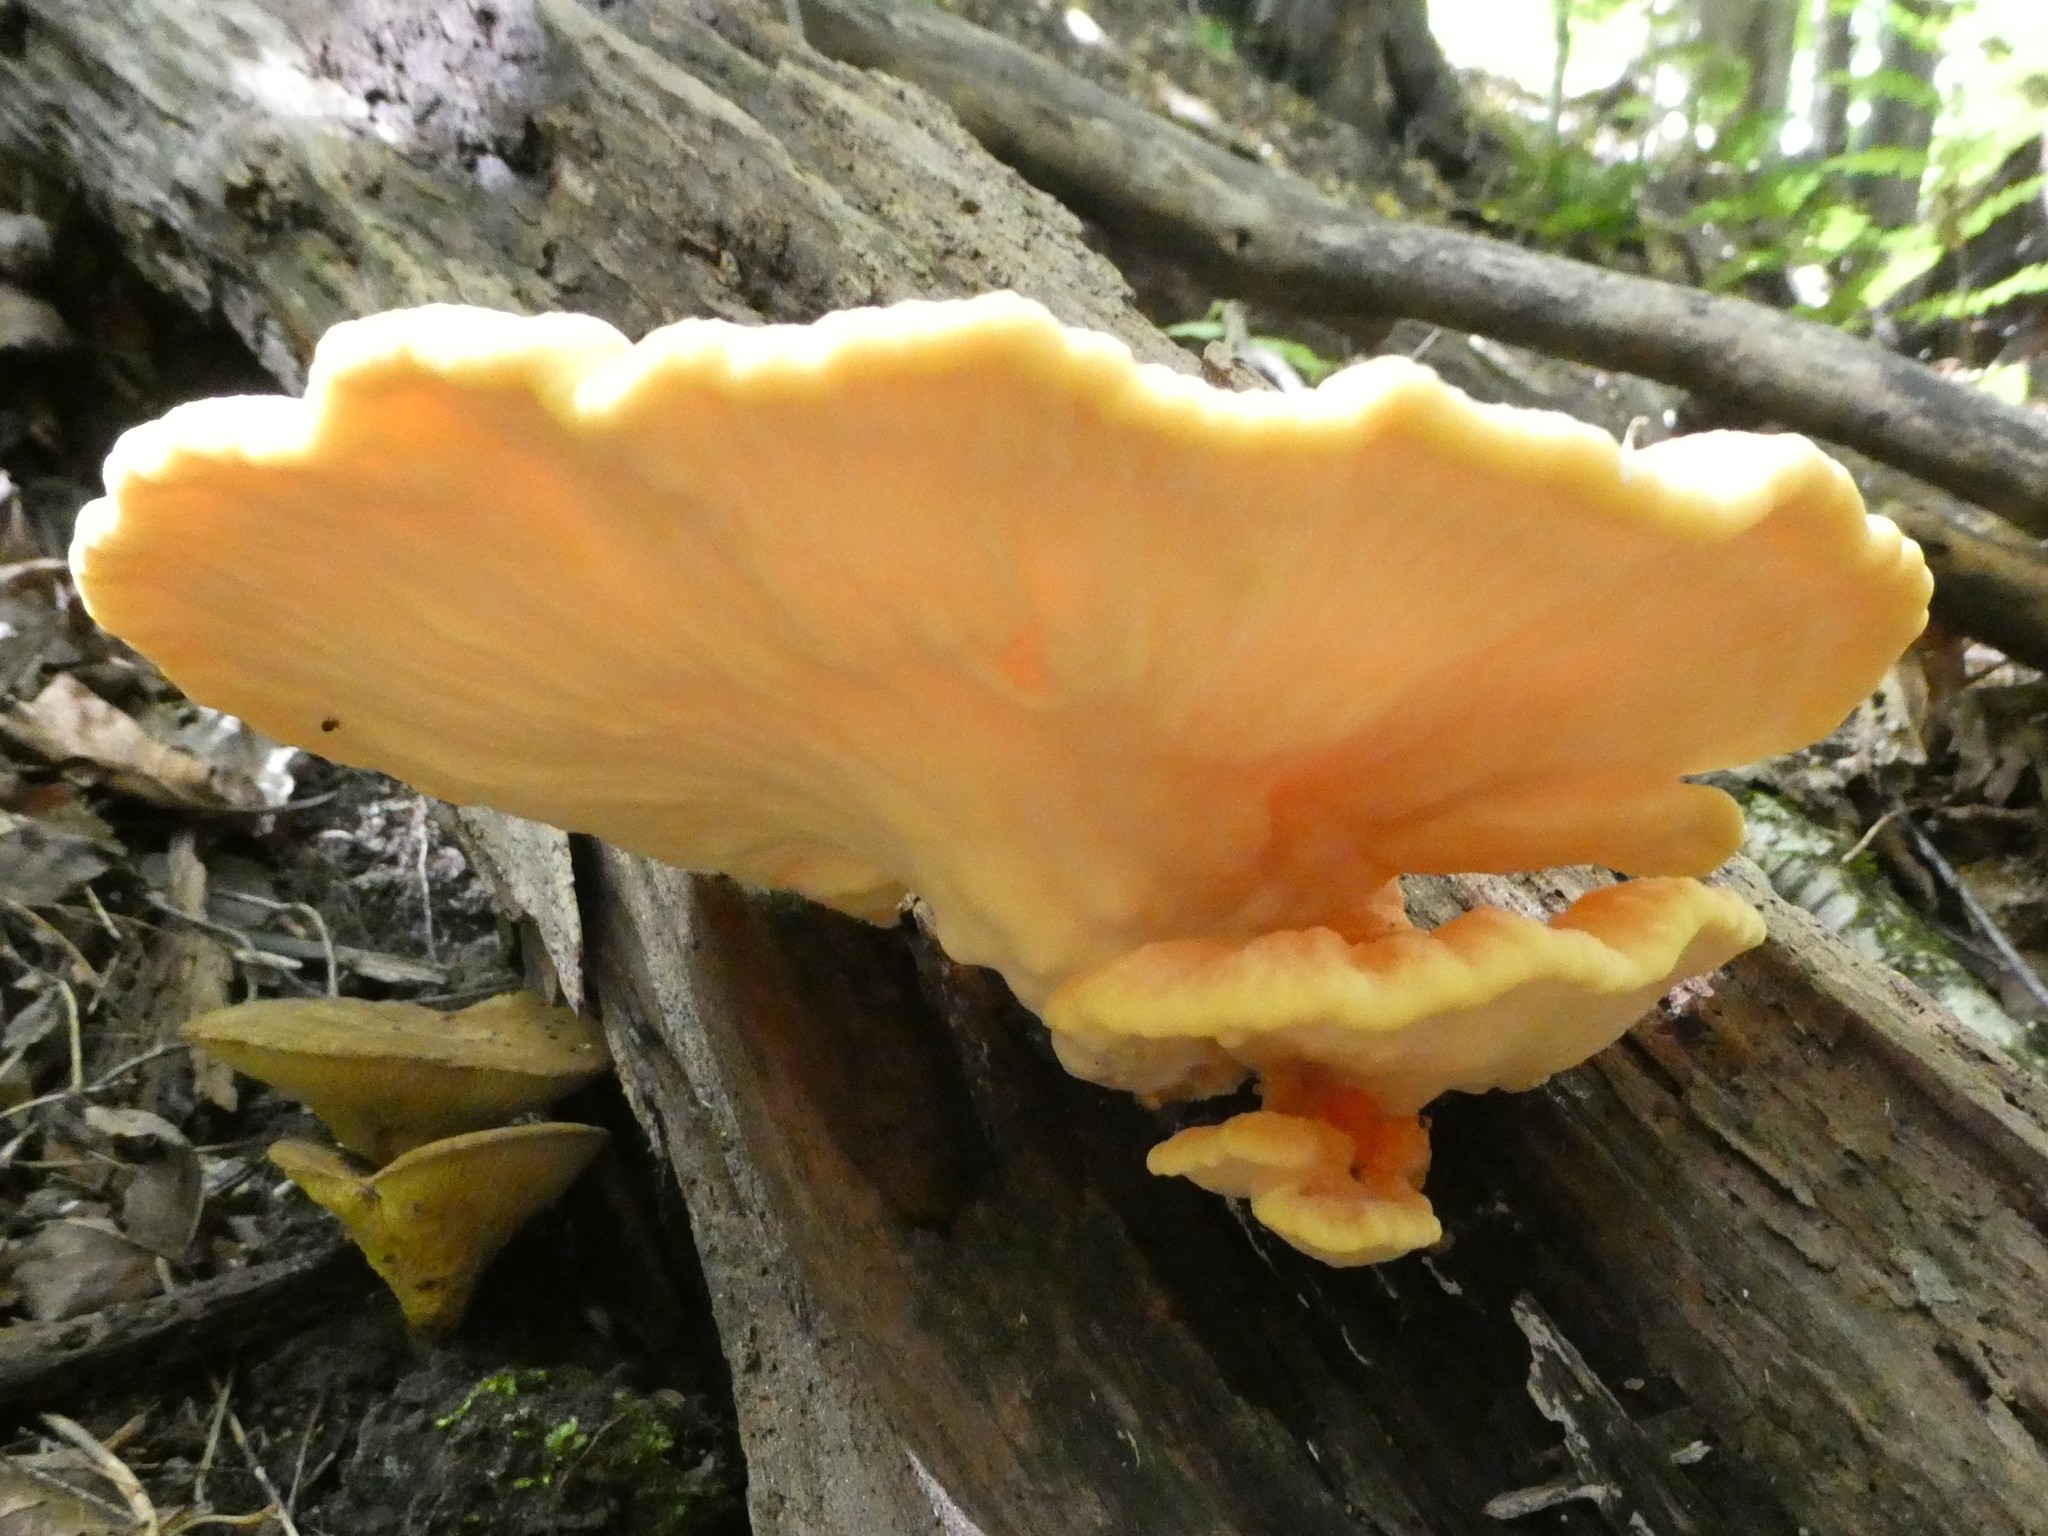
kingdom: Fungi
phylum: Basidiomycota
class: Agaricomycetes
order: Polyporales
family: Laetiporaceae
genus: Laetiporus
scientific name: Laetiporus sulphureus
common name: Chicken of the woods
